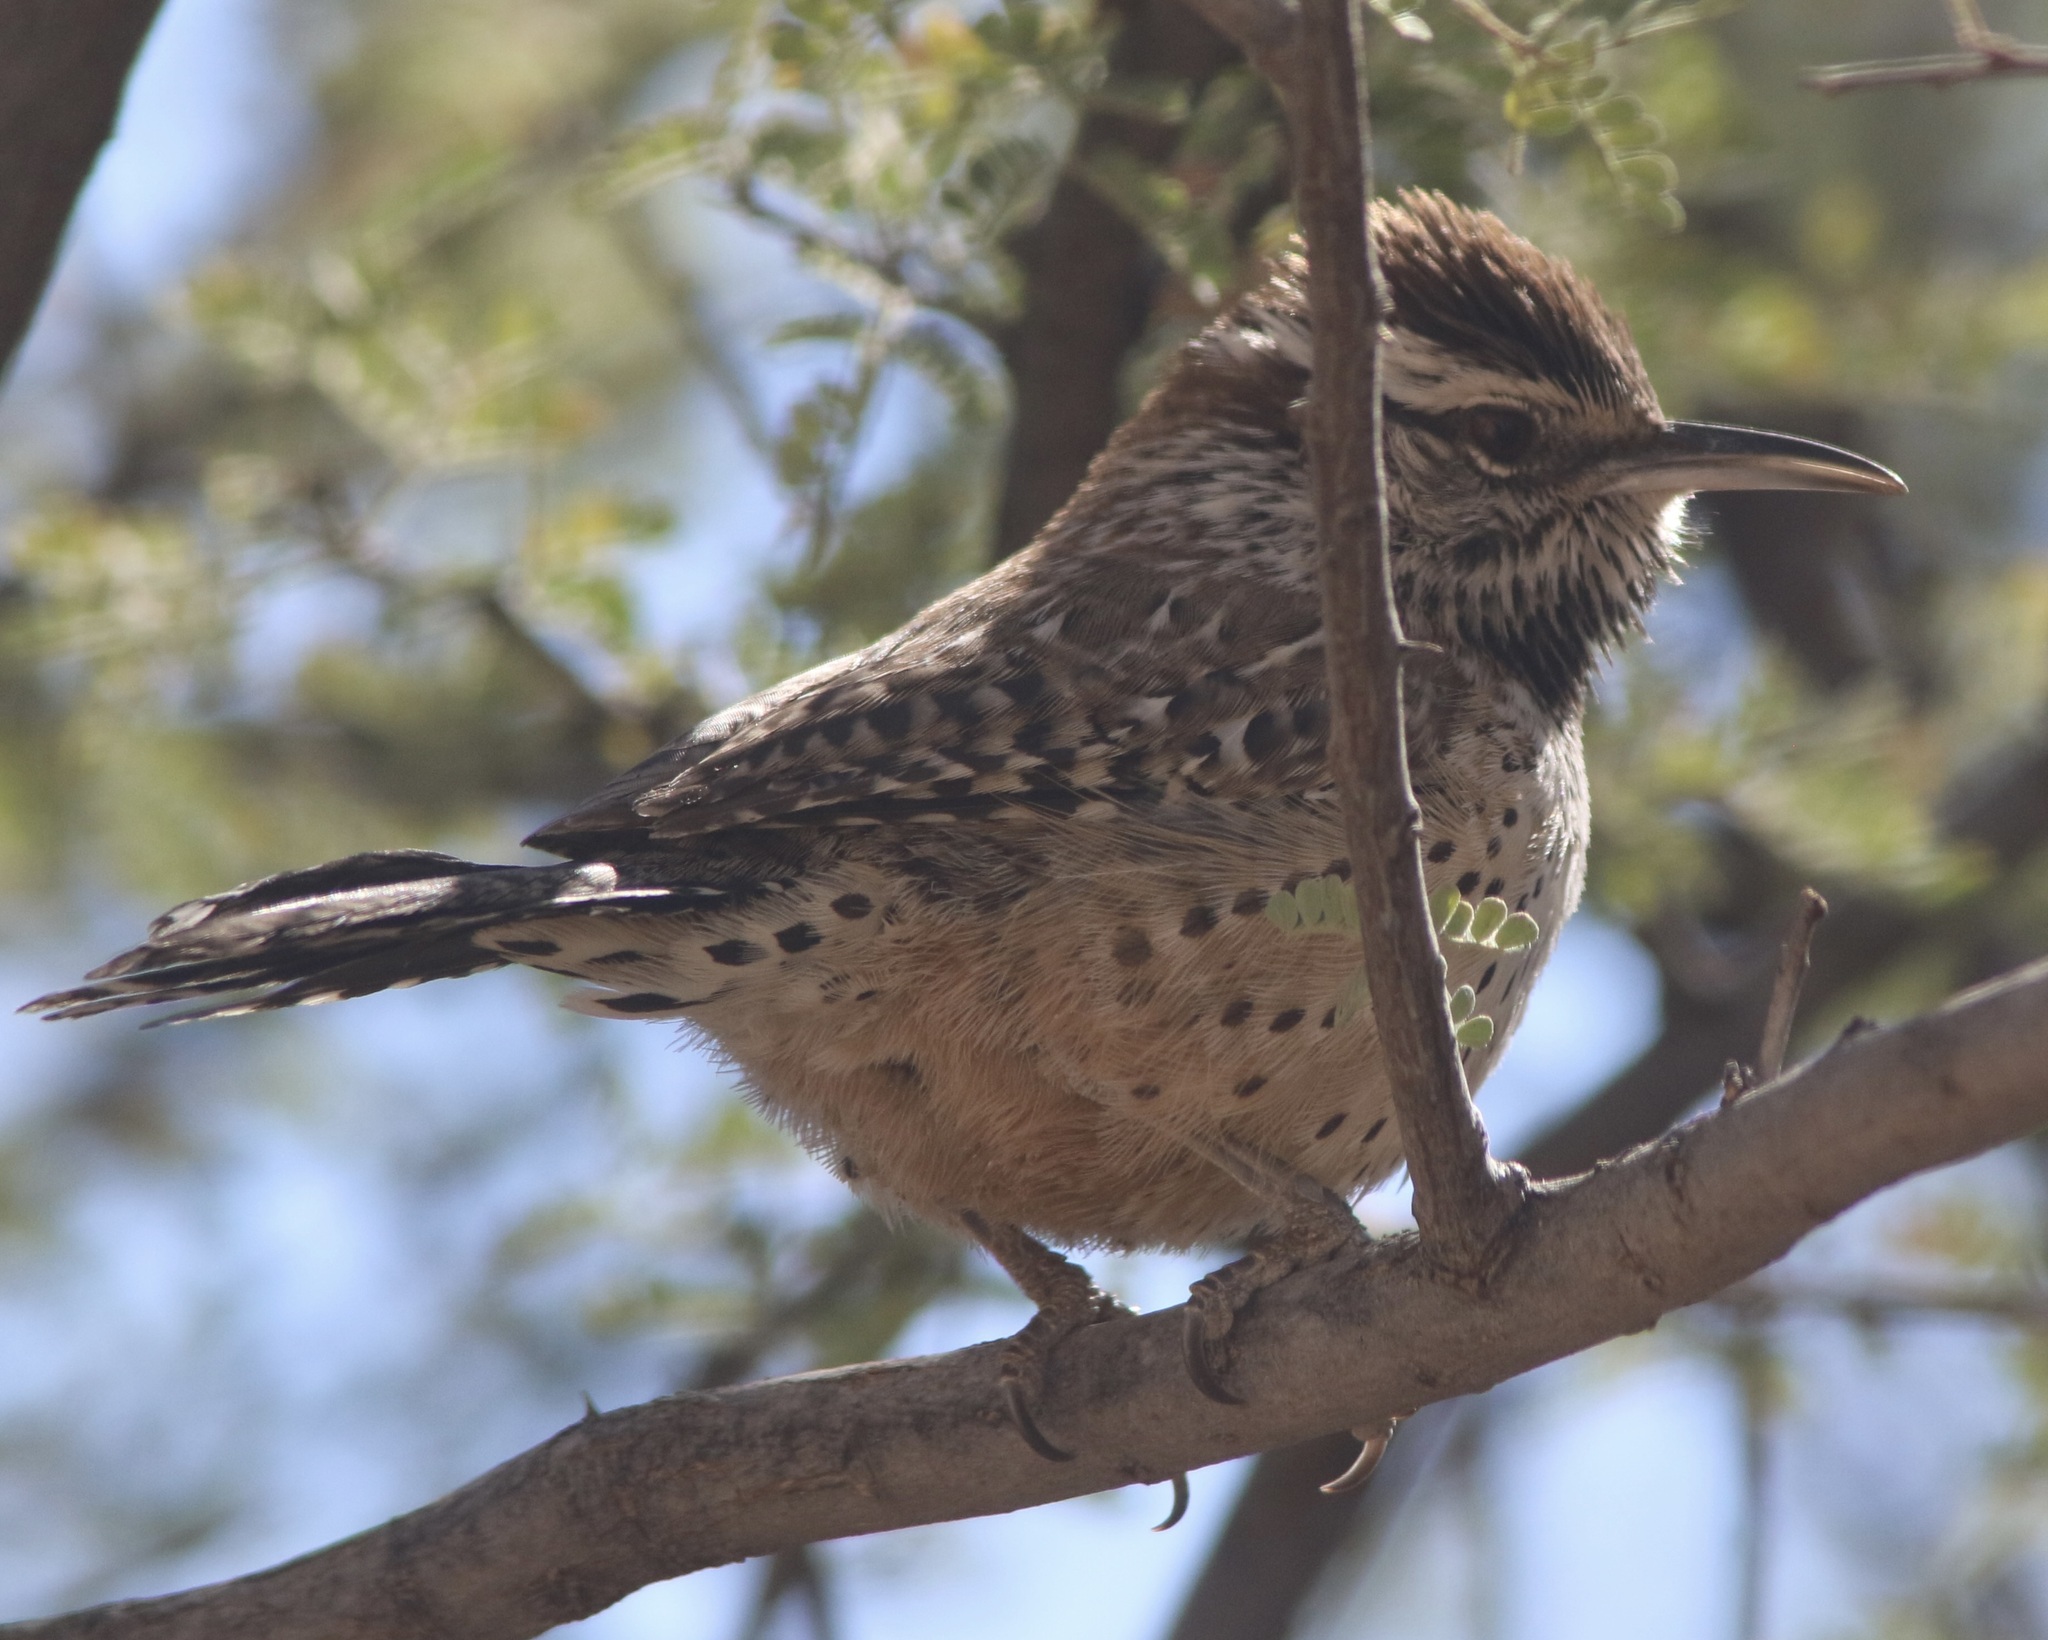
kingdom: Animalia
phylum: Chordata
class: Aves
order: Passeriformes
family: Troglodytidae
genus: Campylorhynchus
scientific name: Campylorhynchus brunneicapillus
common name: Cactus wren
